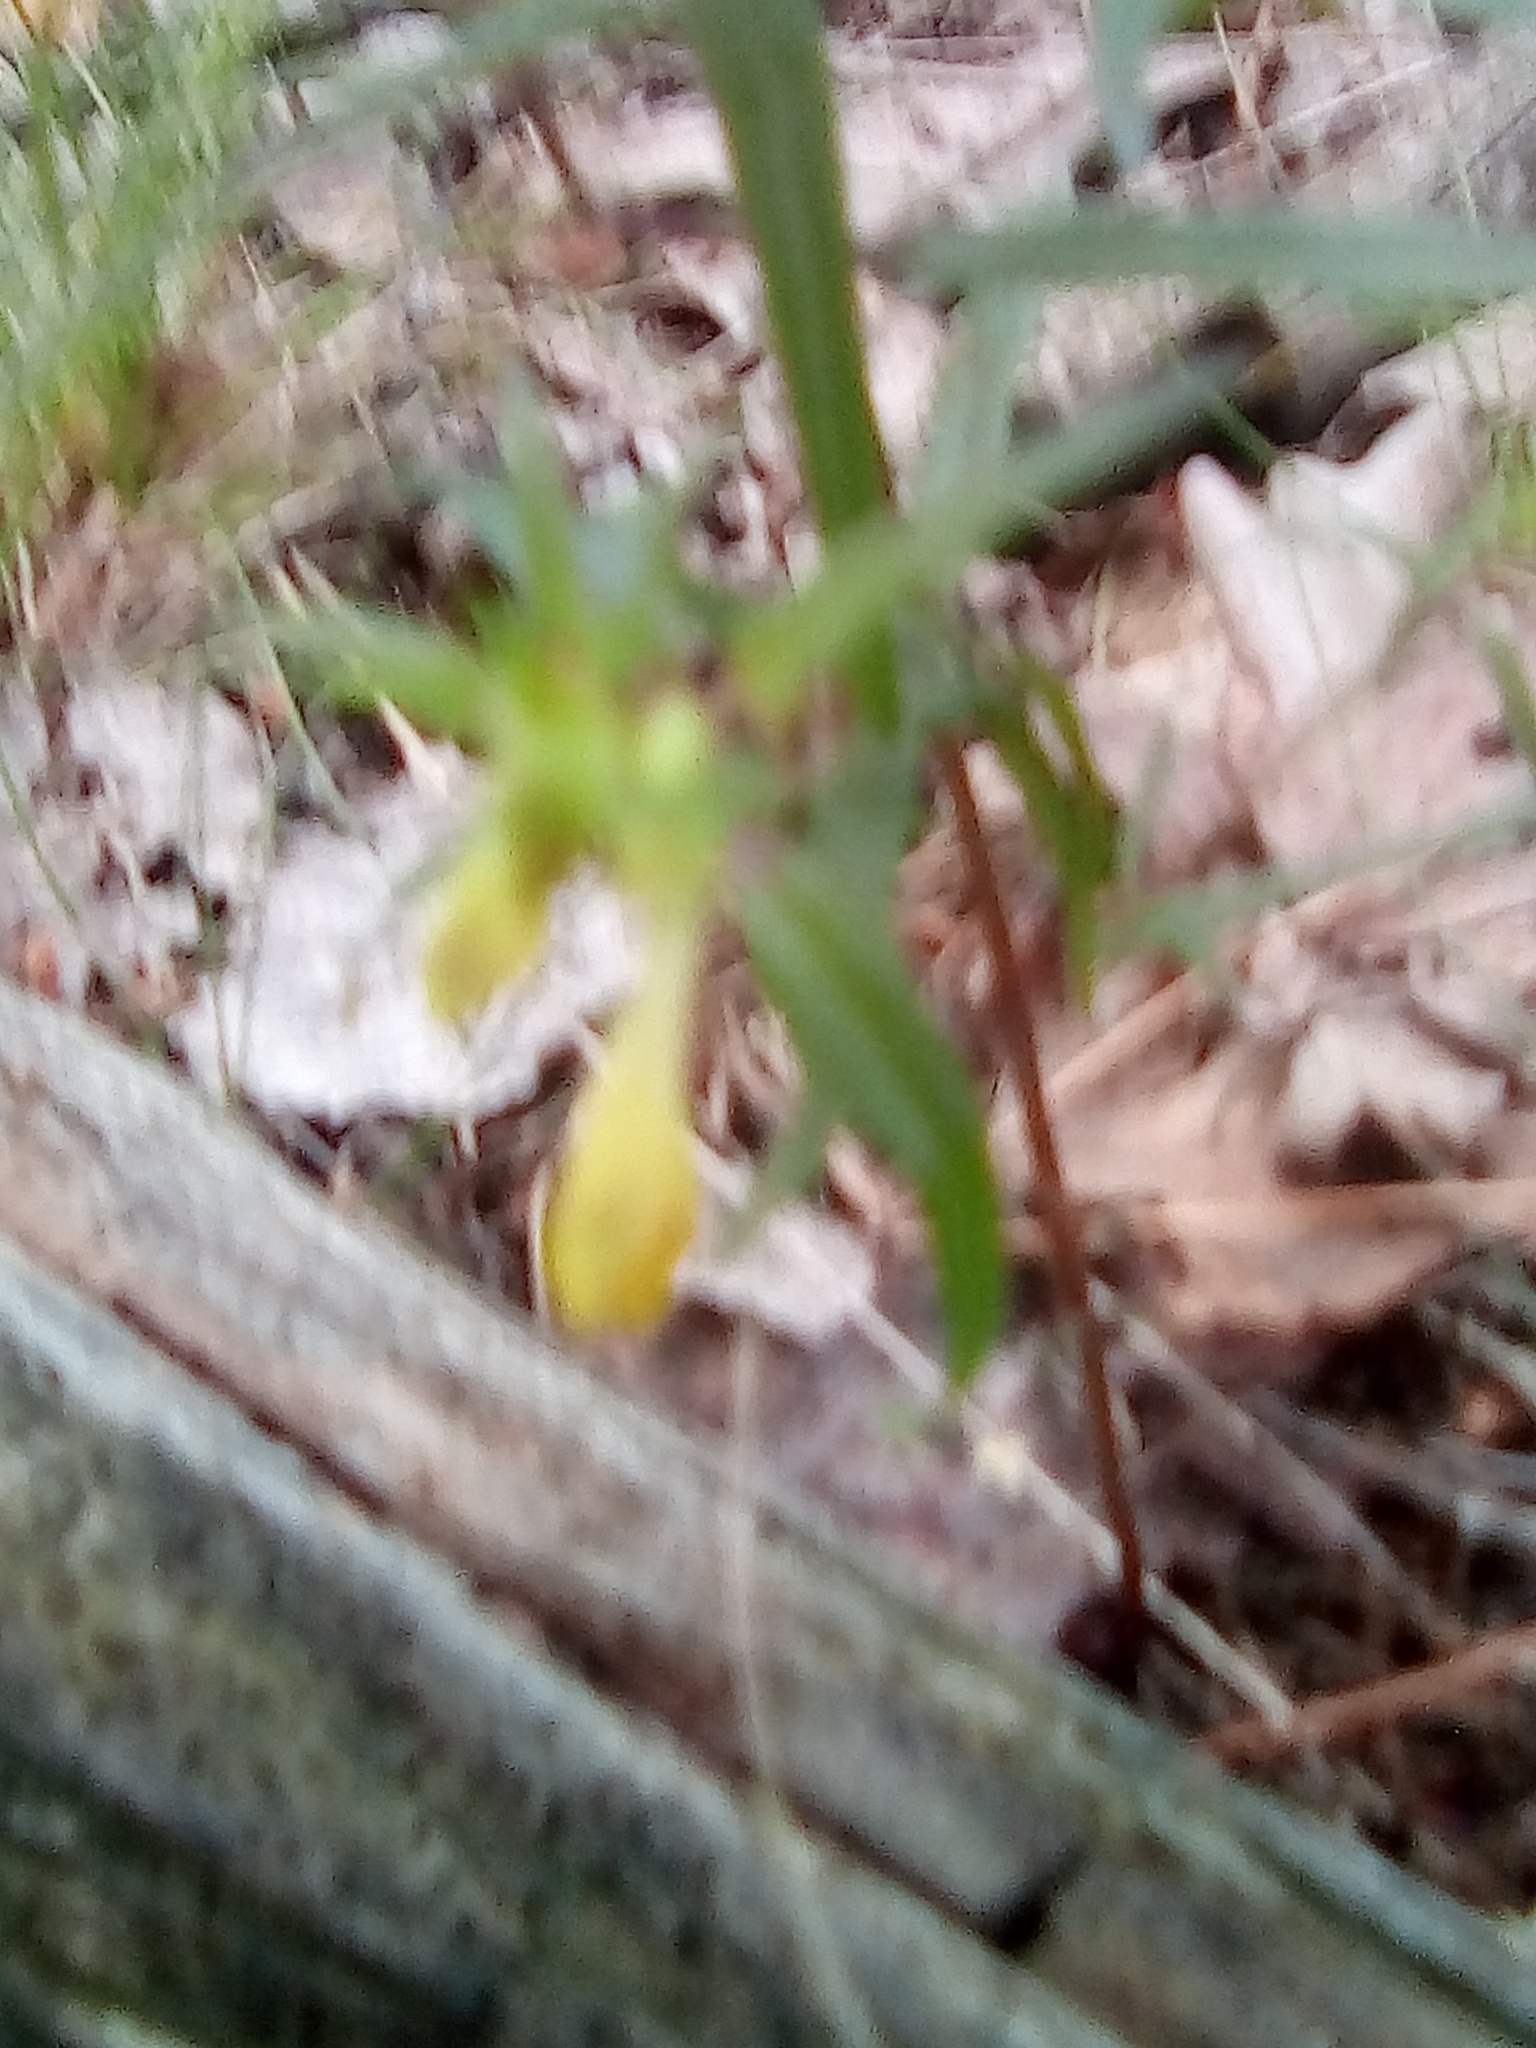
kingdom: Plantae
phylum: Tracheophyta
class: Magnoliopsida
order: Lamiales
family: Orobanchaceae
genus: Melampyrum
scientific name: Melampyrum pratense
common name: Common cow-wheat
